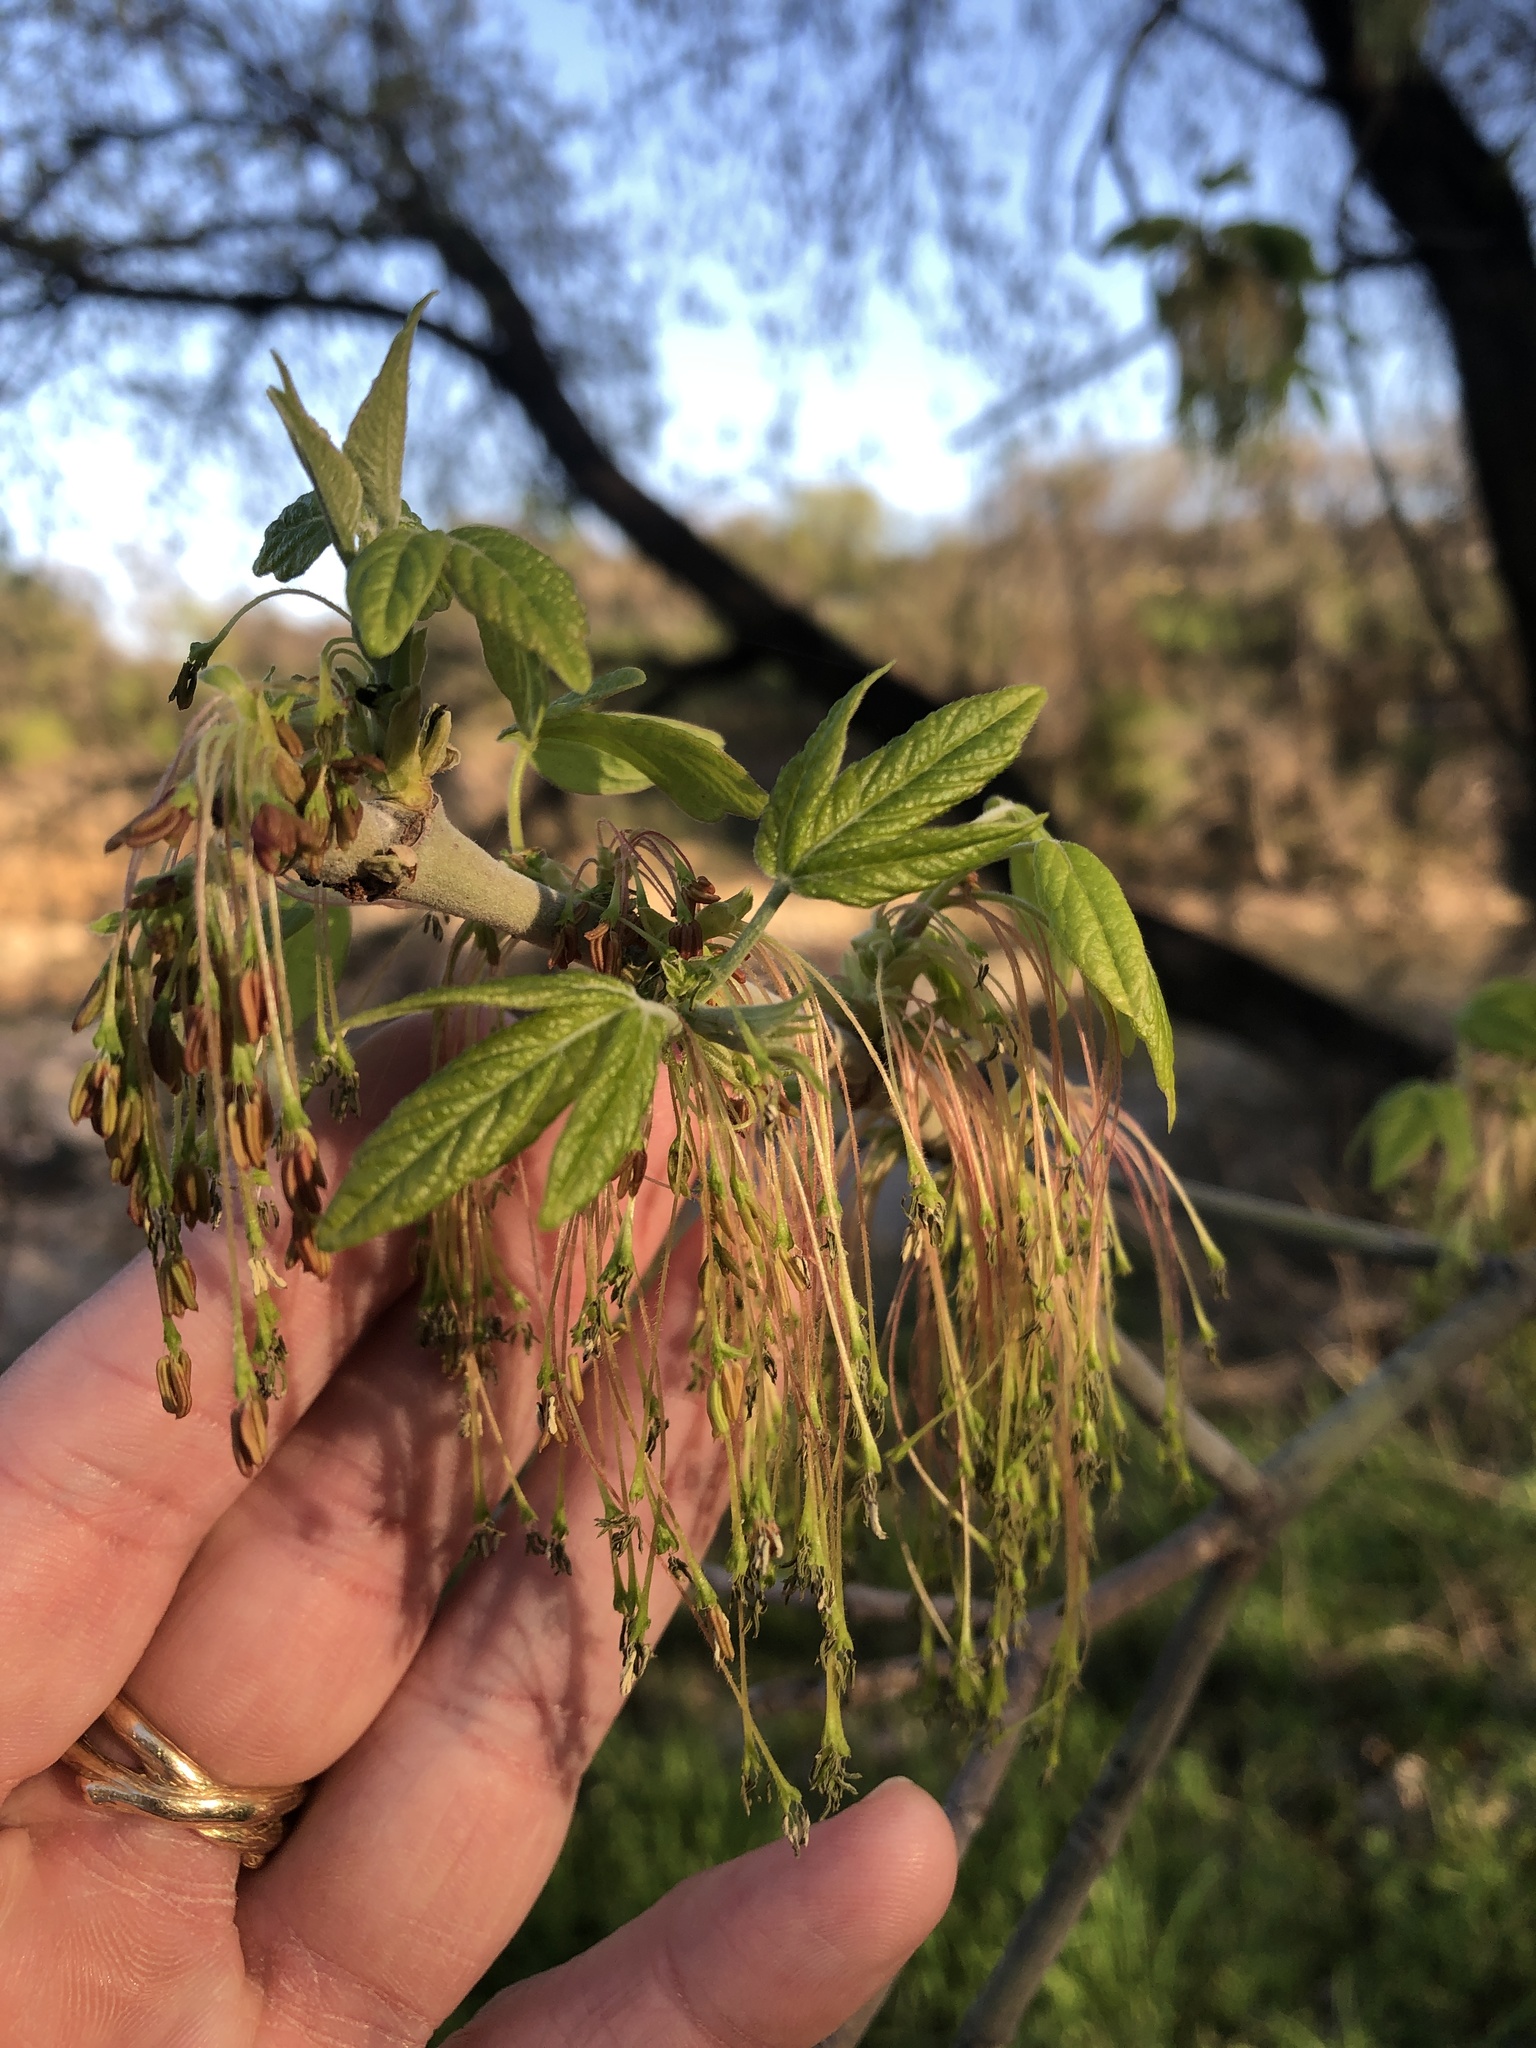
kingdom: Plantae
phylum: Tracheophyta
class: Magnoliopsida
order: Sapindales
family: Sapindaceae
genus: Acer
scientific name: Acer negundo
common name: Ashleaf maple
